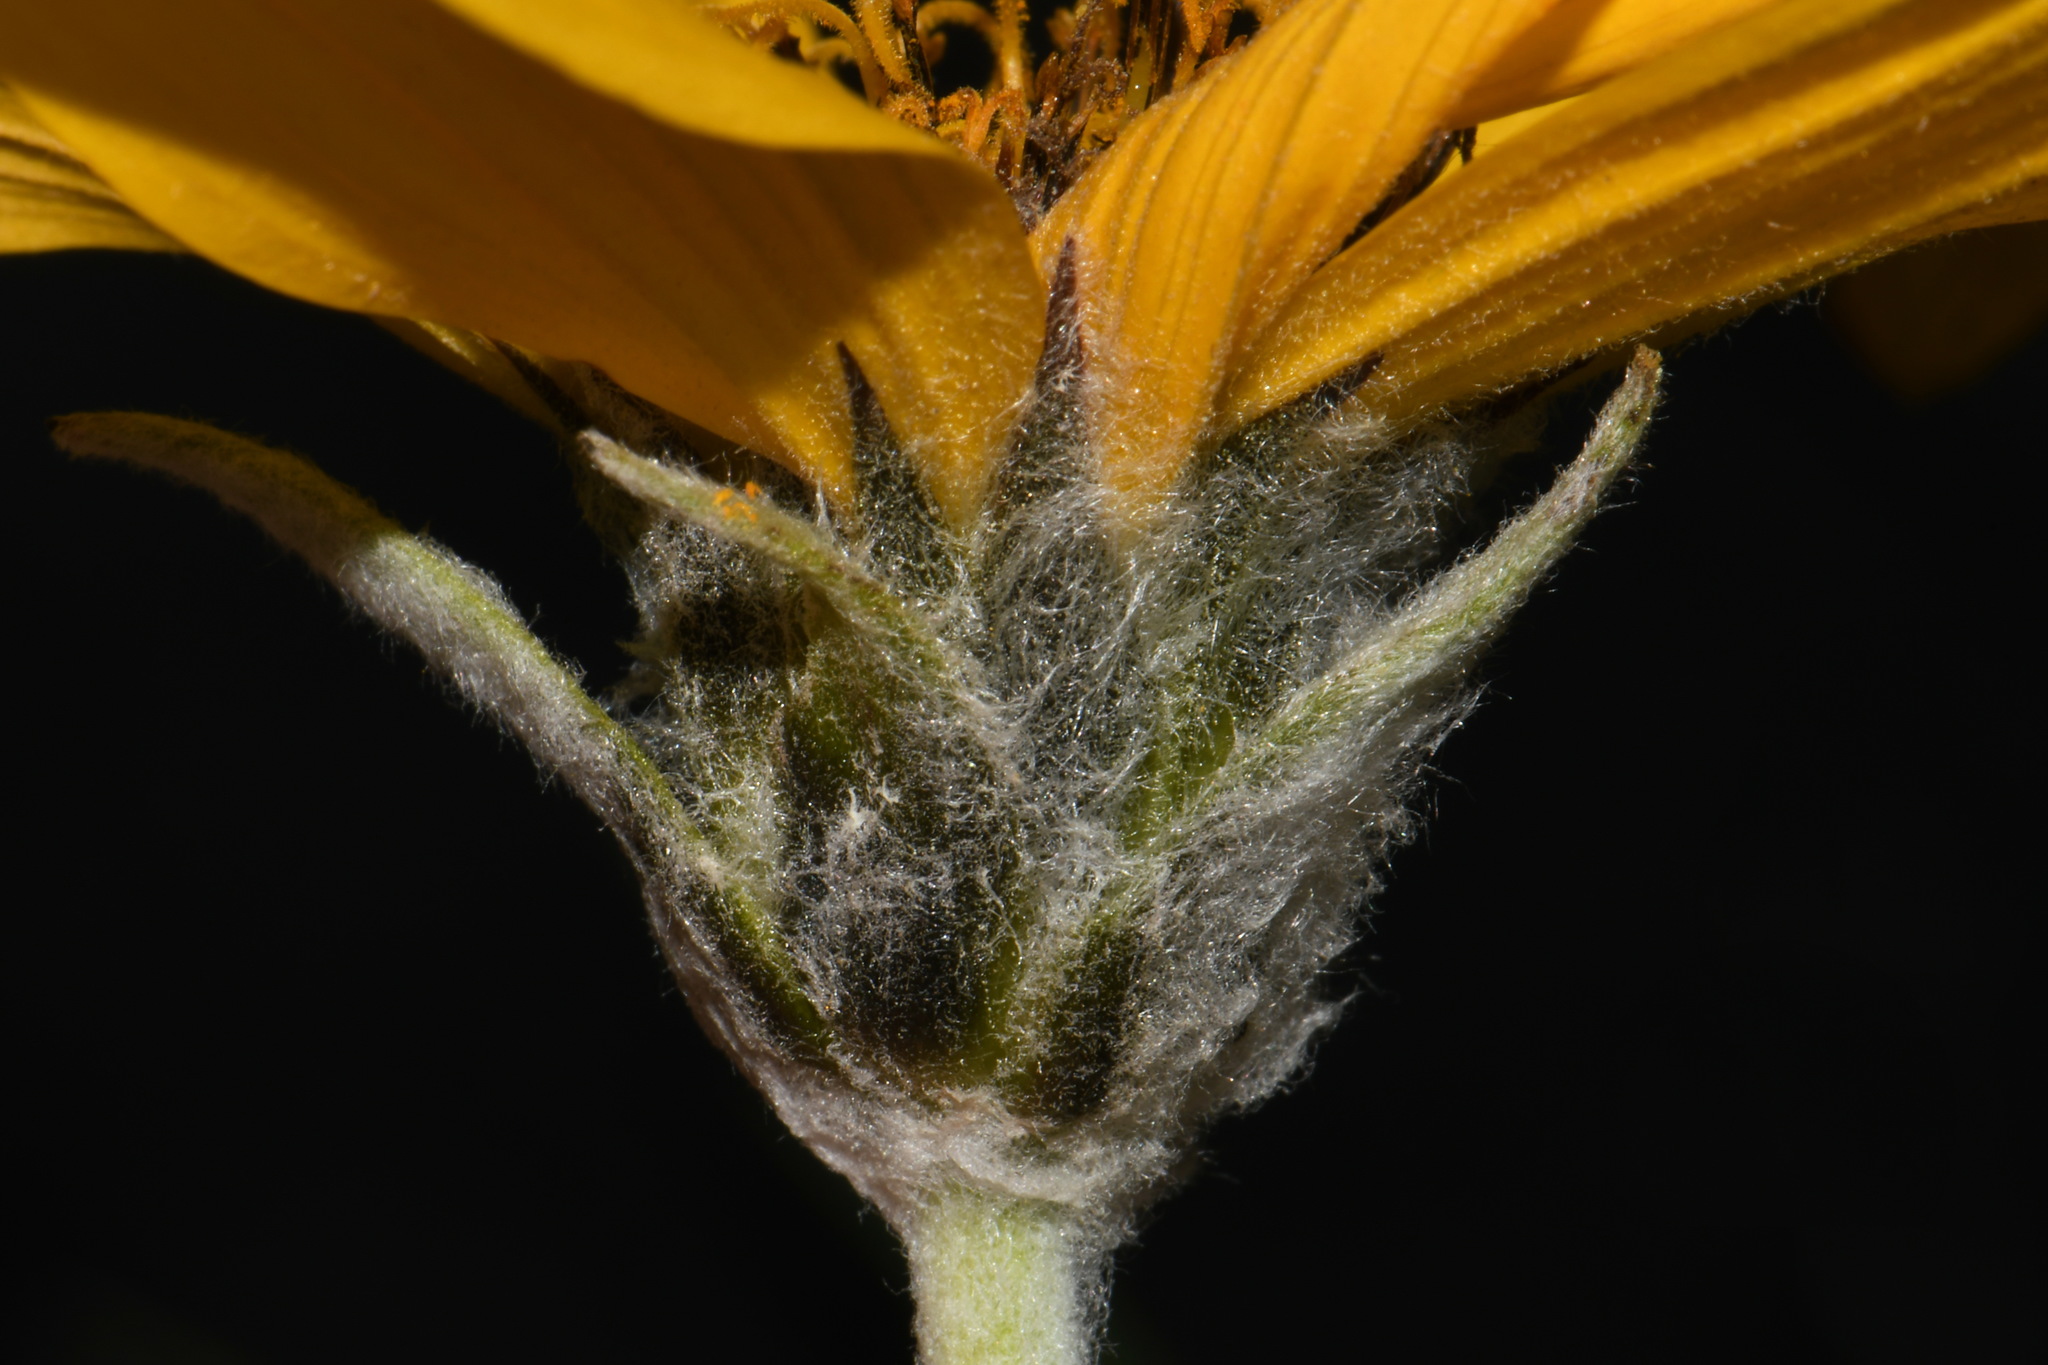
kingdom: Plantae
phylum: Tracheophyta
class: Magnoliopsida
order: Asterales
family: Asteraceae
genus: Wyethia
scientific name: Wyethia sagittata
